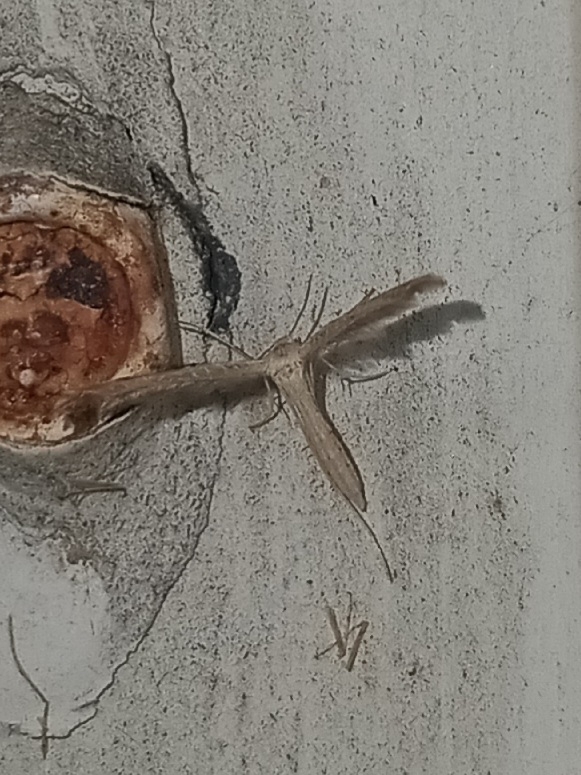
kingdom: Animalia
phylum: Arthropoda
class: Insecta
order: Lepidoptera
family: Pterophoridae
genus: Lioptilodes
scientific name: Lioptilodes albistriolatus
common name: Moth
